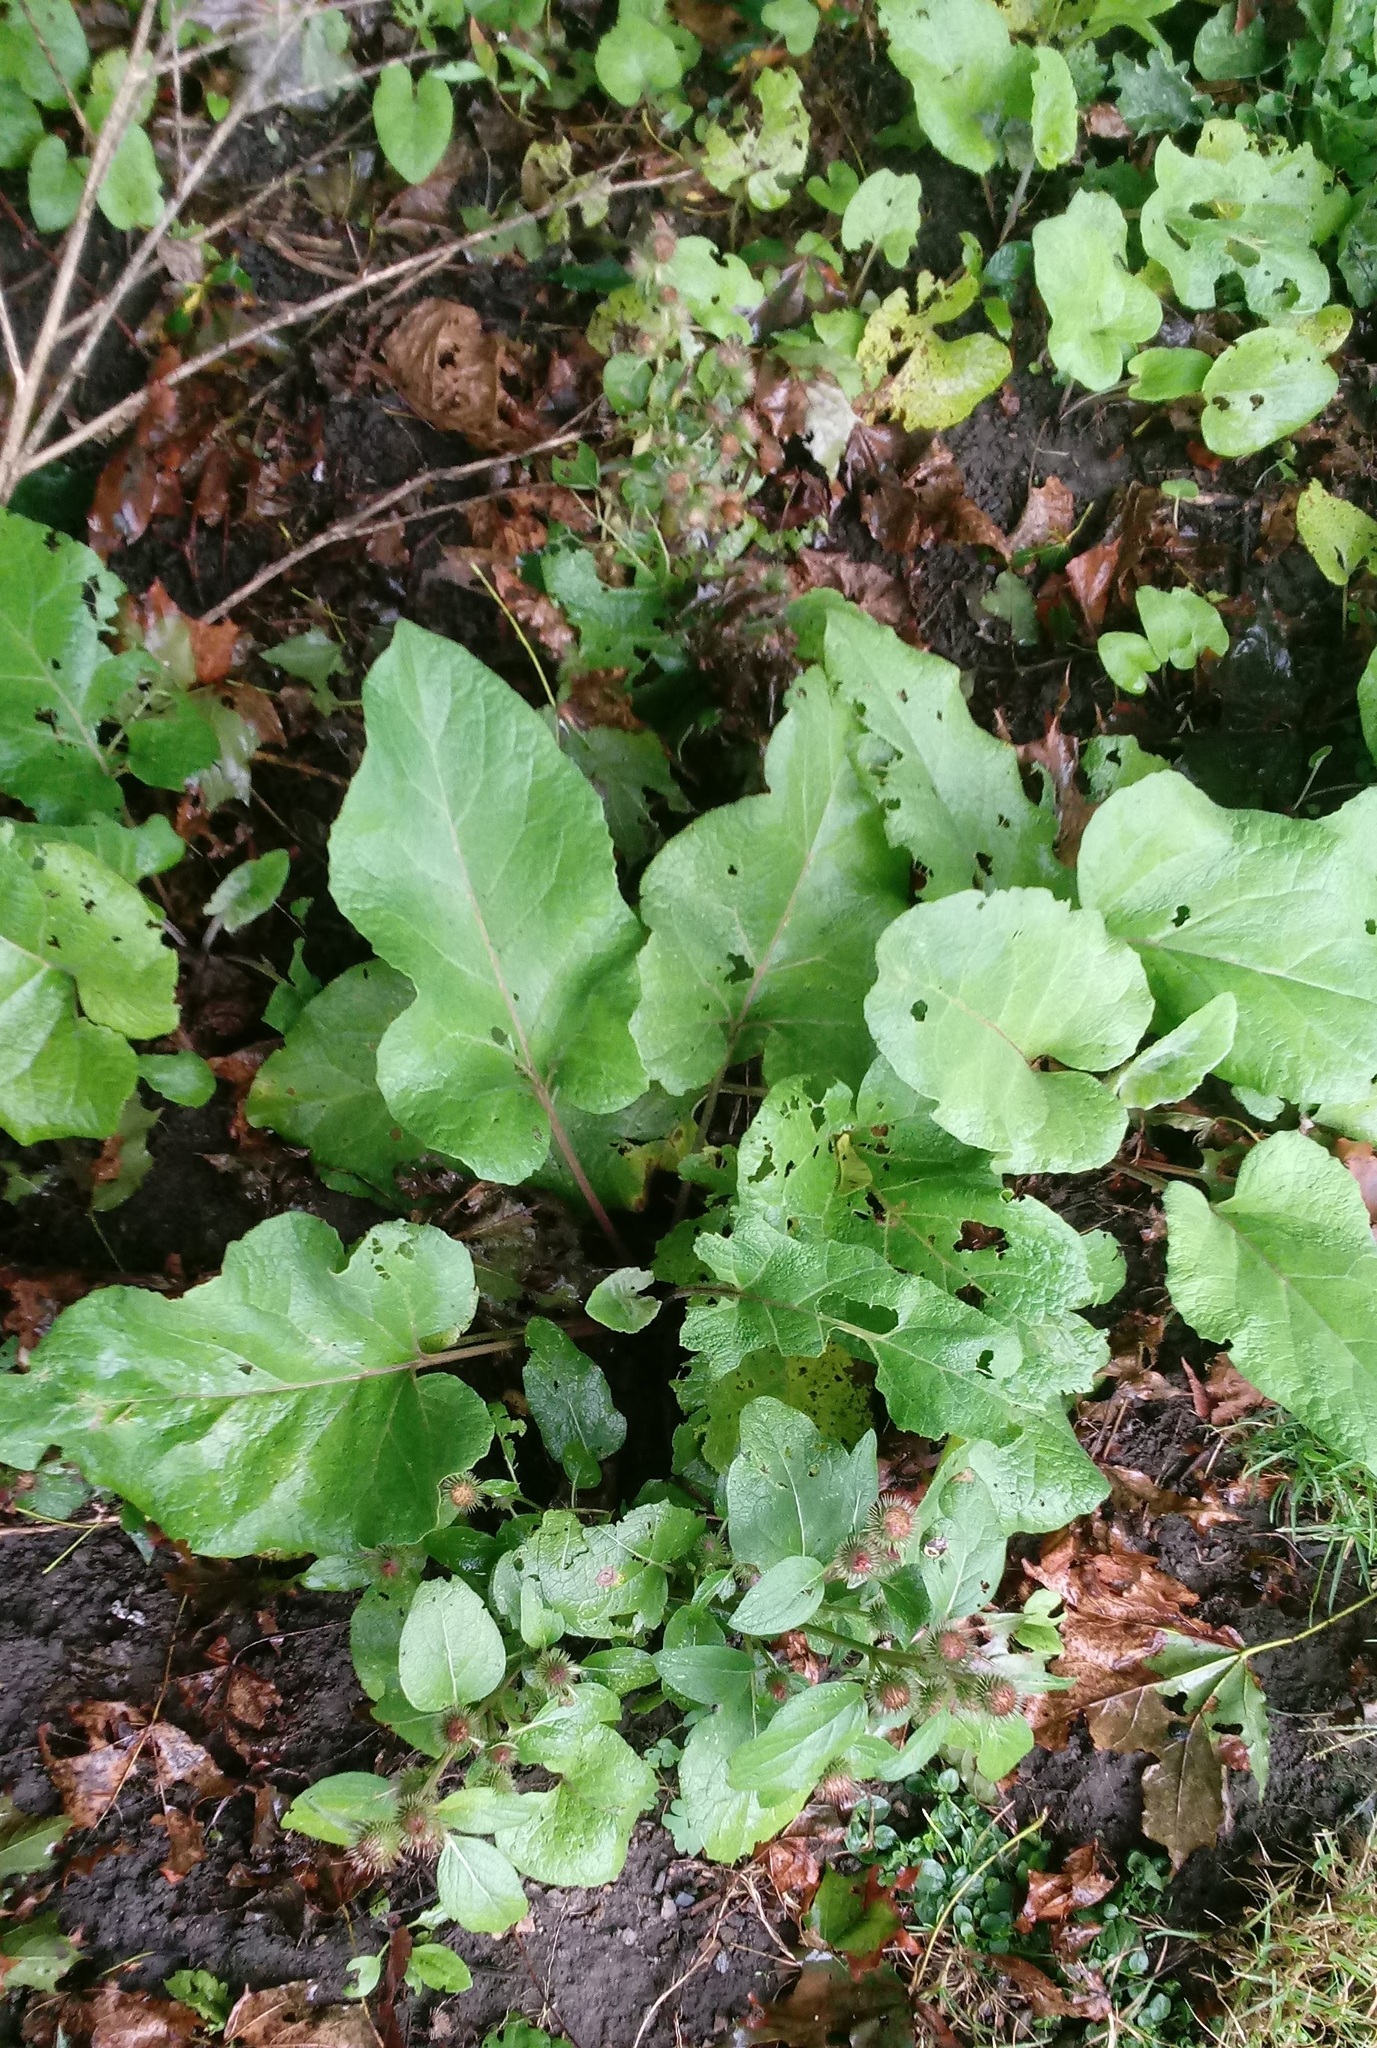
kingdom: Plantae
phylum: Tracheophyta
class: Magnoliopsida
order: Asterales
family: Asteraceae
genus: Arctium
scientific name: Arctium
